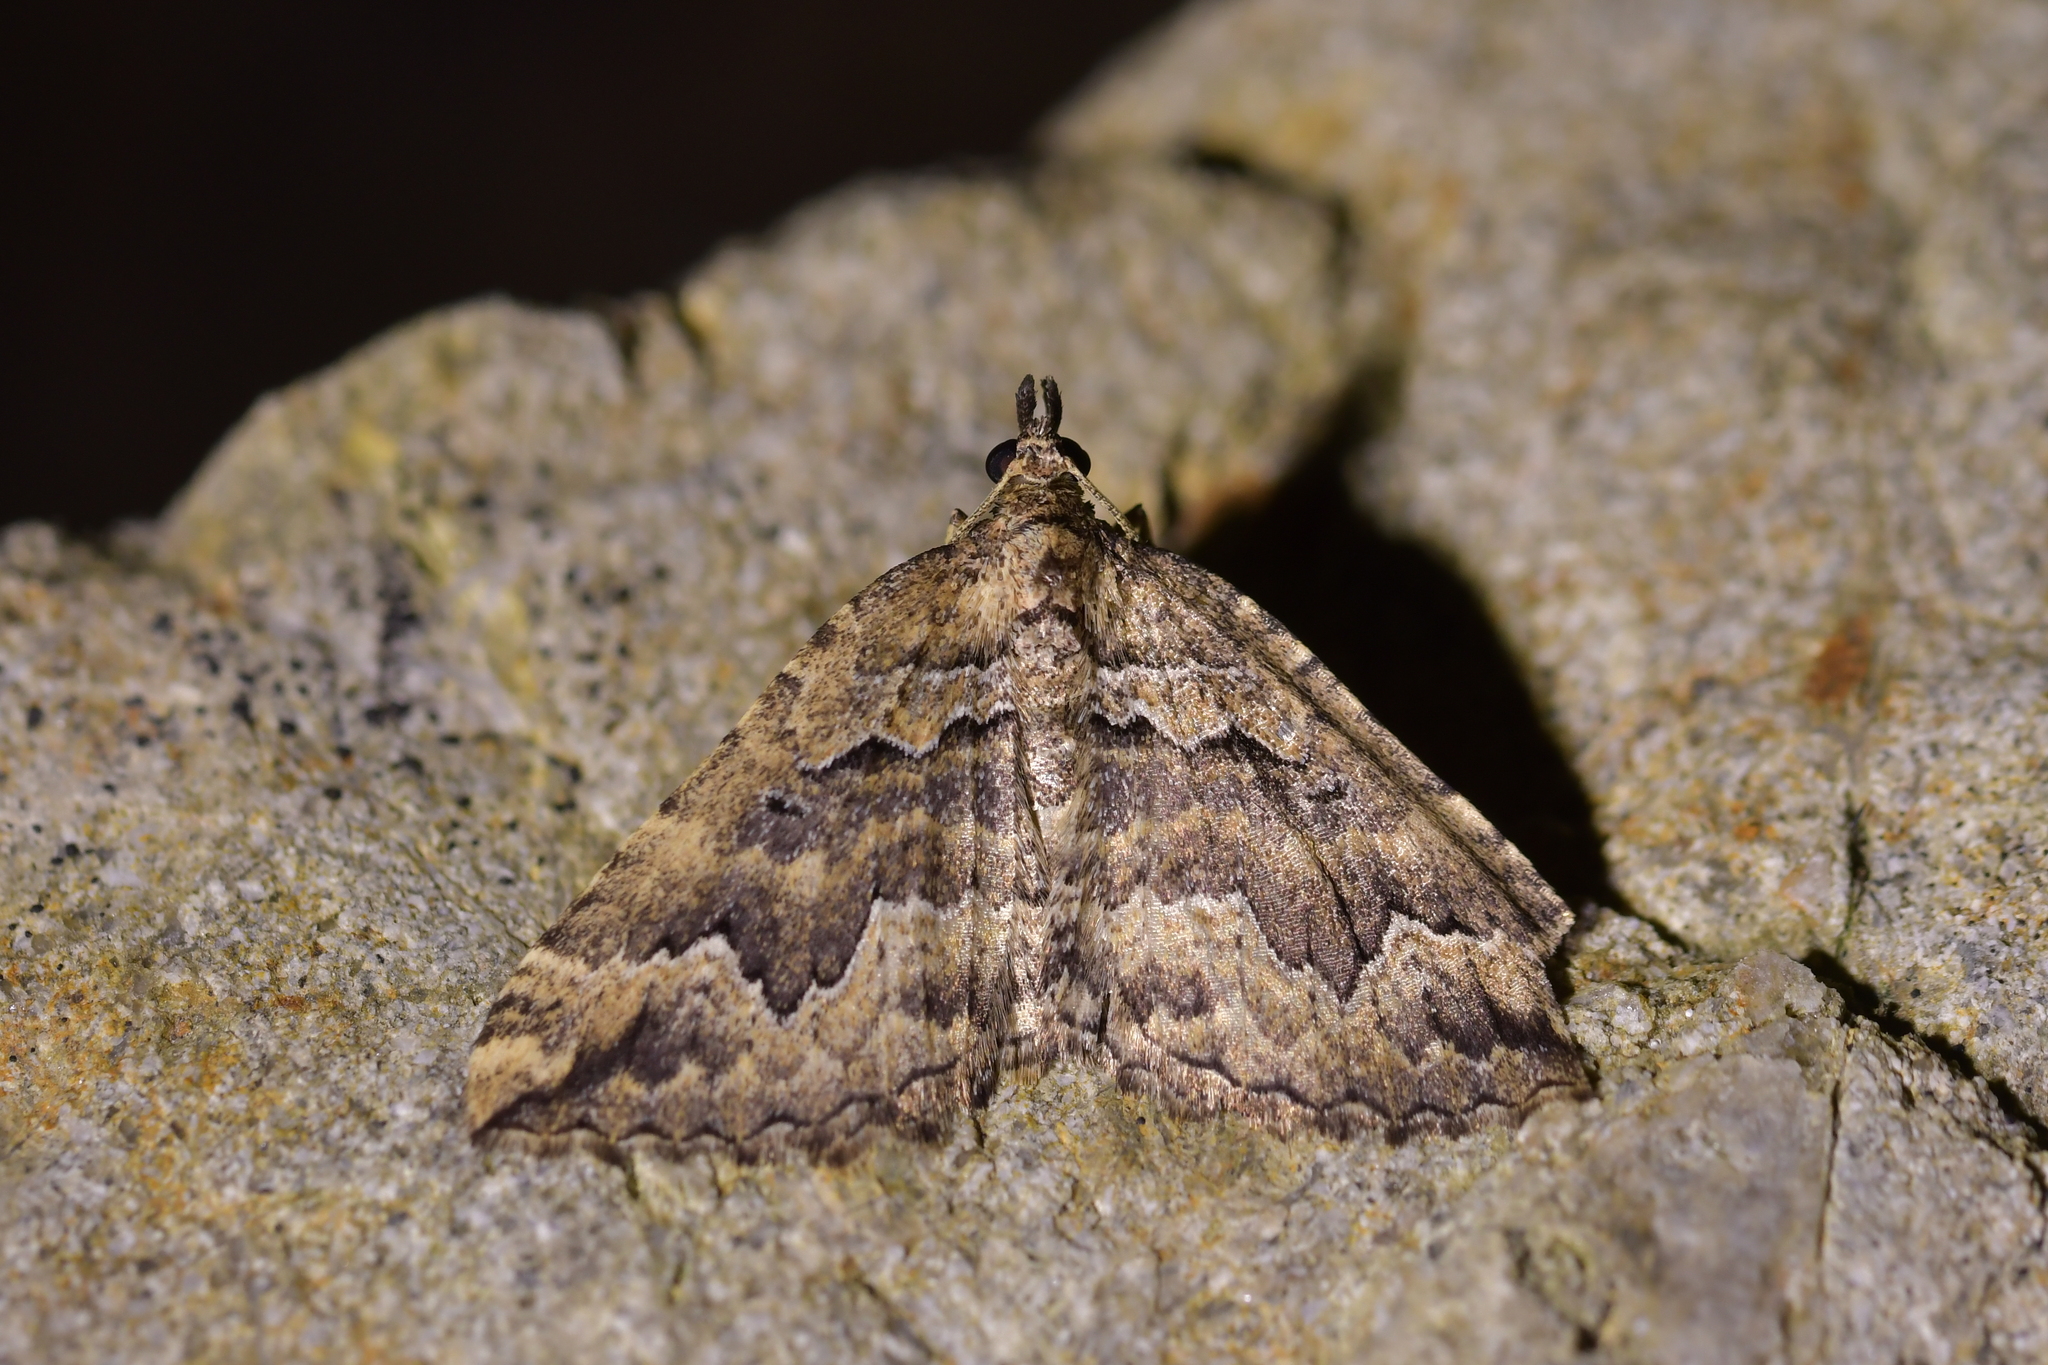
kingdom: Animalia
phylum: Arthropoda
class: Insecta
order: Lepidoptera
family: Geometridae
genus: Austrocidaria
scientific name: Austrocidaria lithurga
